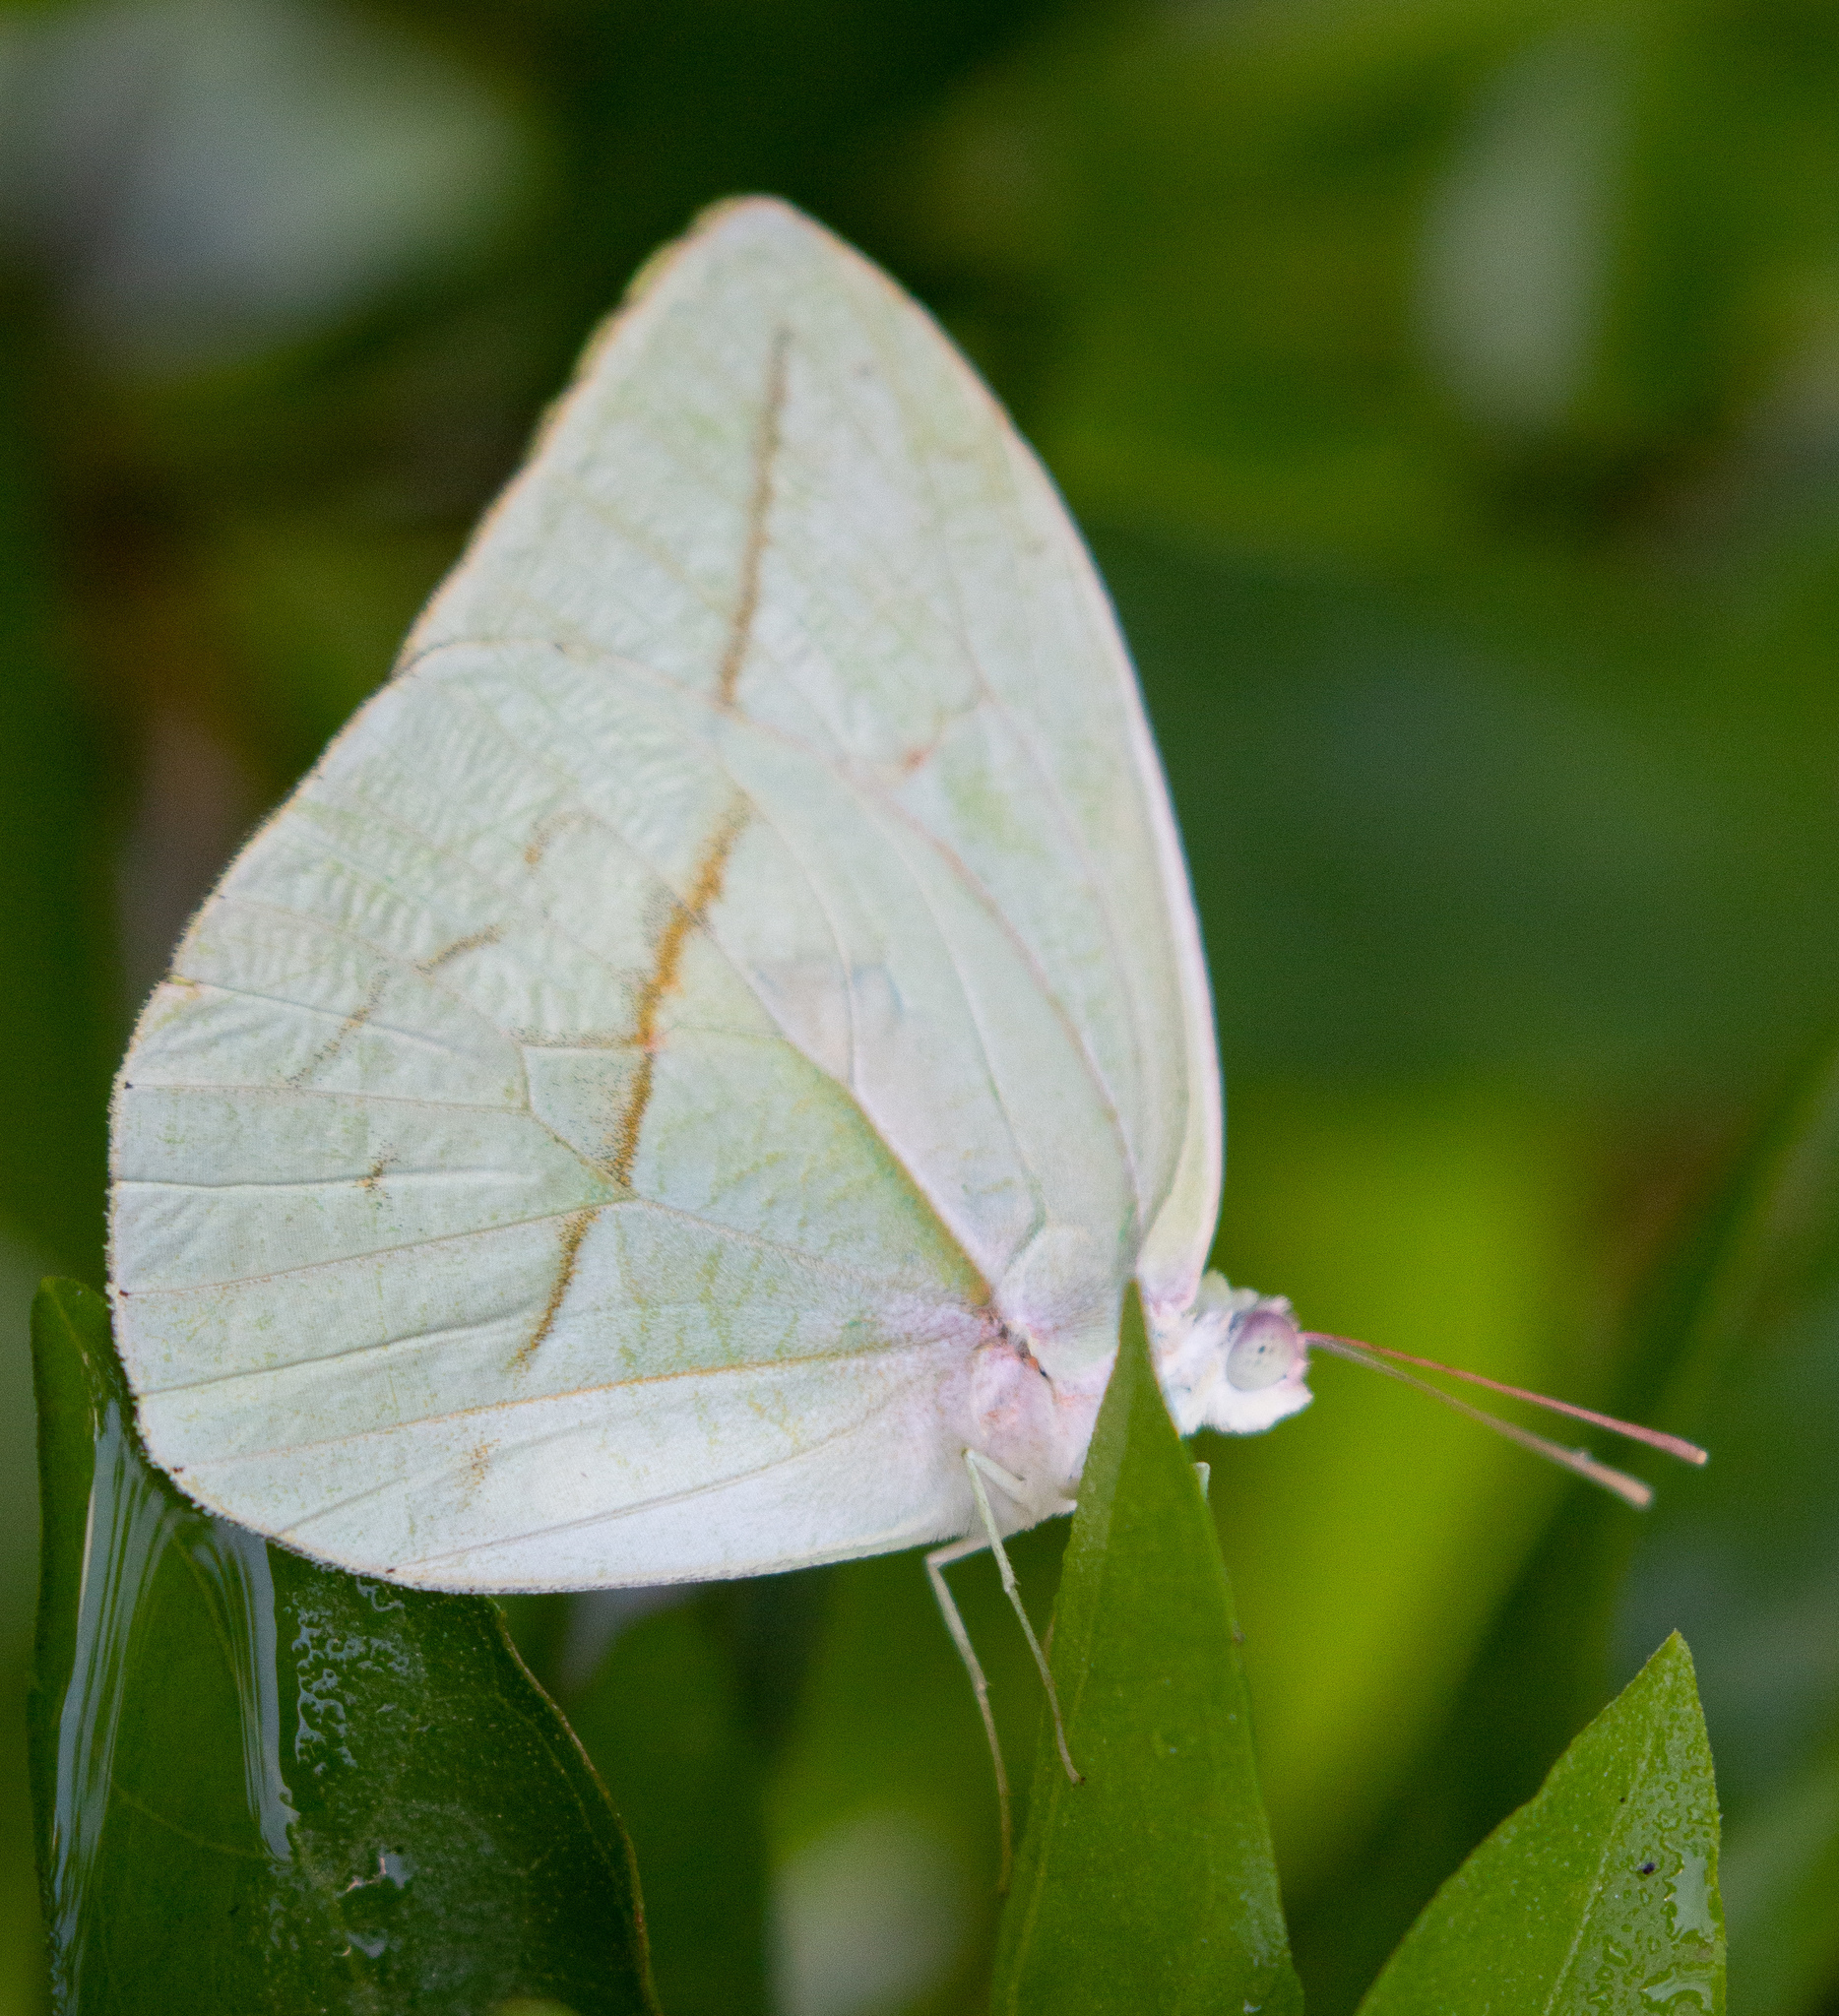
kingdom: Animalia
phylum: Arthropoda
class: Insecta
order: Lepidoptera
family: Pieridae
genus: Rhabdodryas
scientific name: Rhabdodryas trite
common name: Straight-lined sulphur
